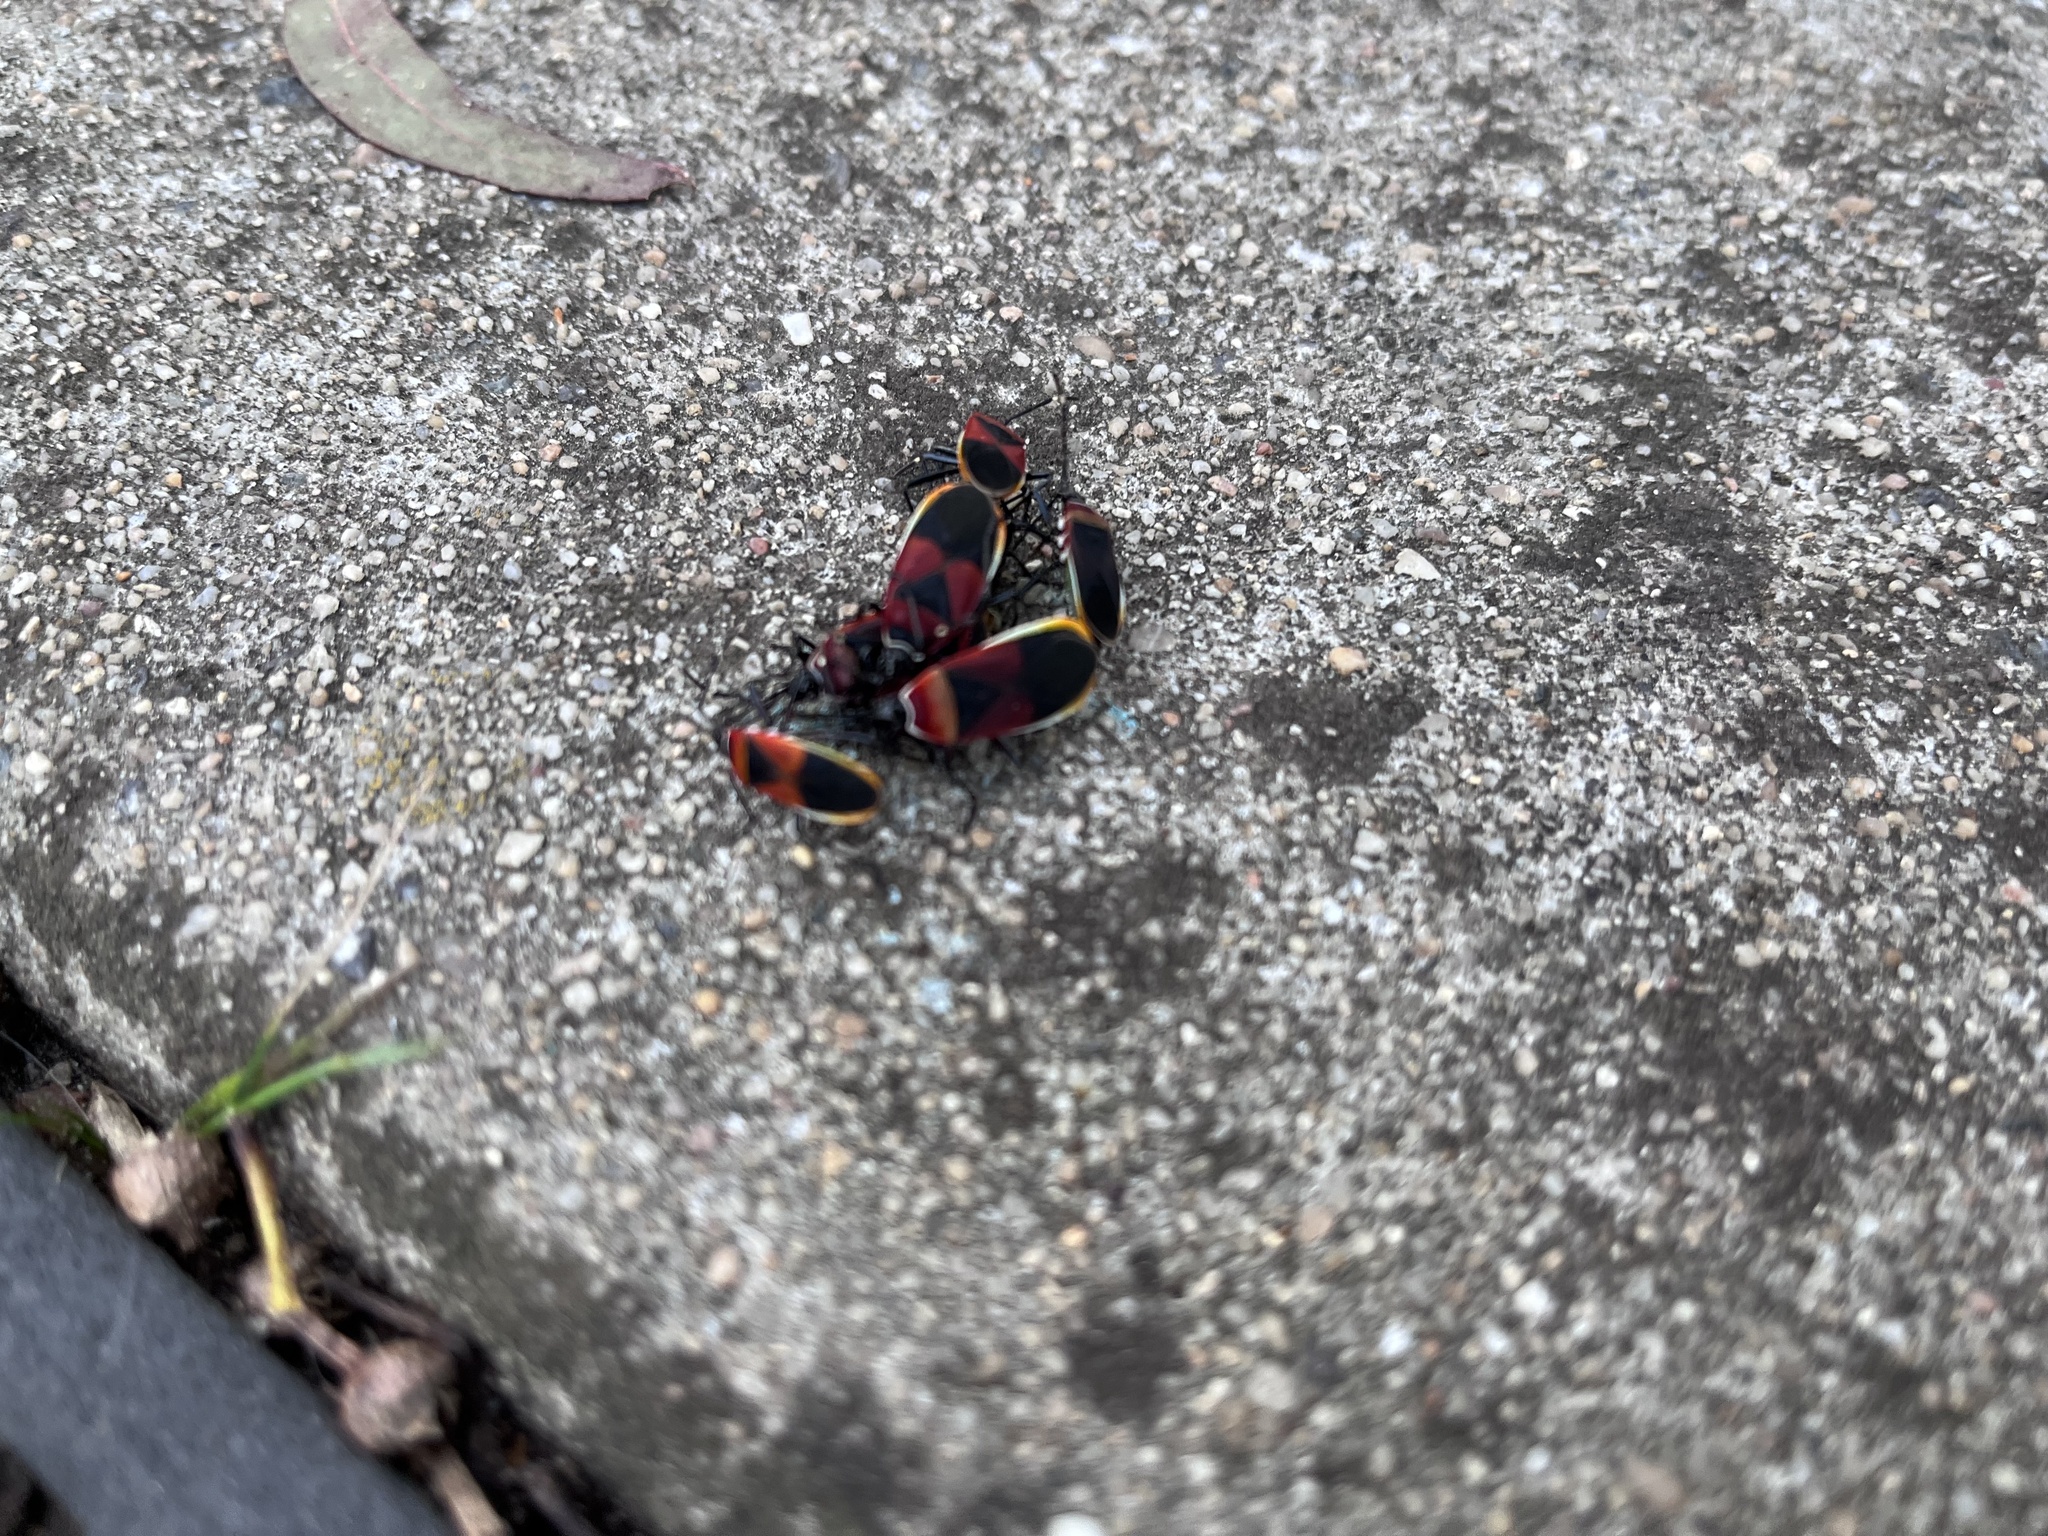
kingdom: Animalia
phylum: Arthropoda
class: Insecta
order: Hemiptera
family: Pyrrhocoridae
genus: Dindymus
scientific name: Dindymus
